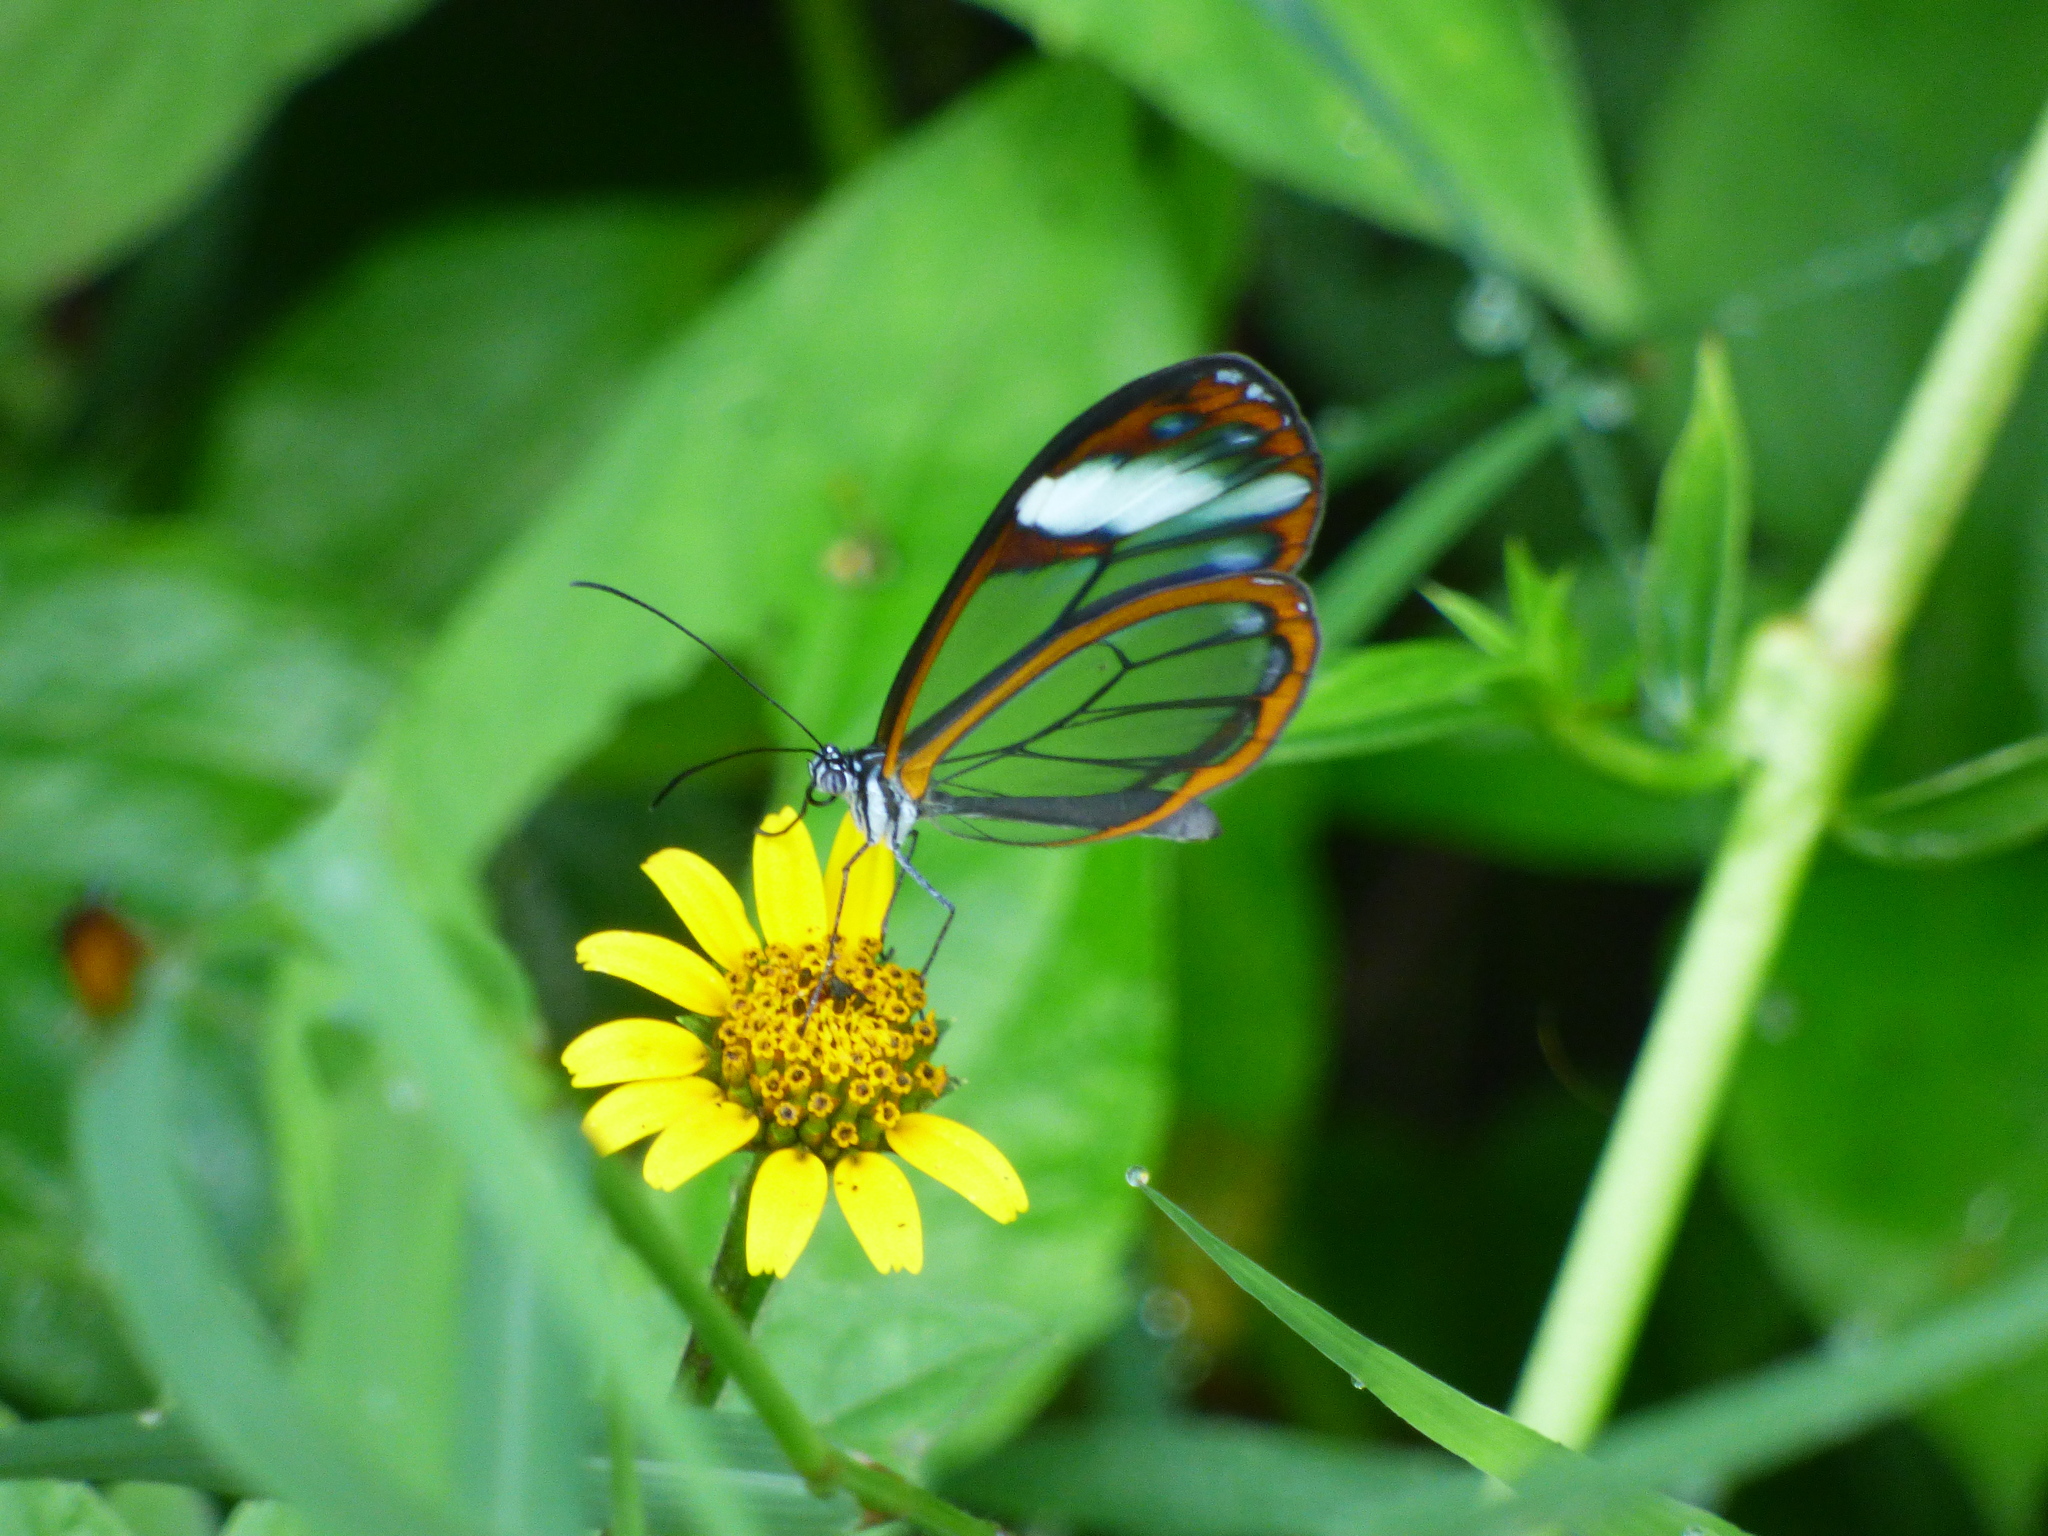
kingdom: Animalia
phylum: Arthropoda
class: Insecta
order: Lepidoptera
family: Nymphalidae
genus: Greta
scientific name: Greta andromica
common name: Andromica clearwing
